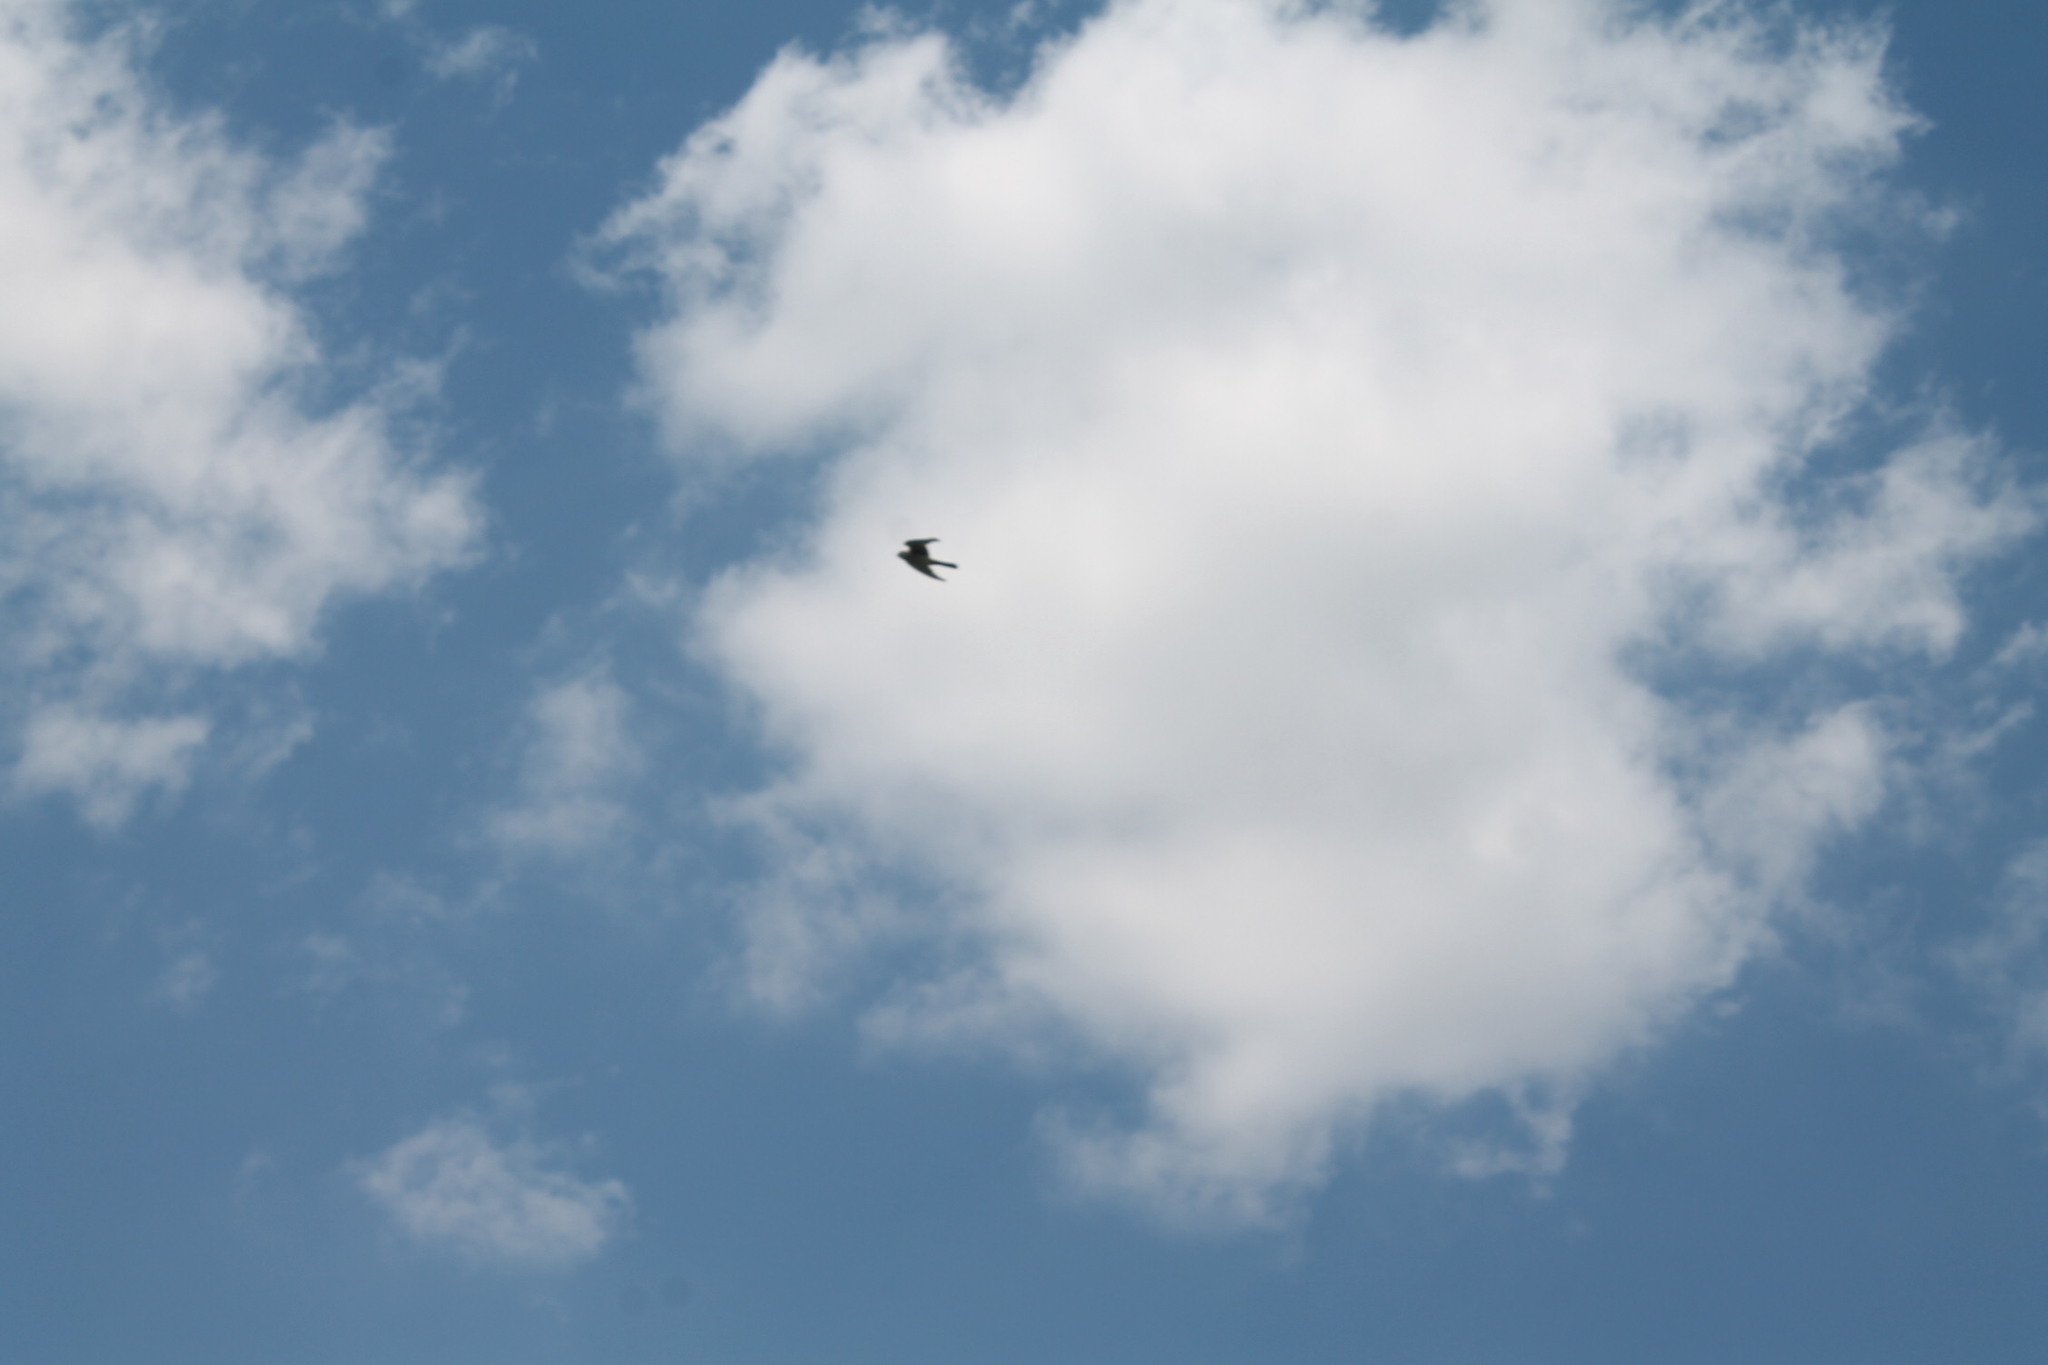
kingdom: Animalia
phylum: Chordata
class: Aves
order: Falconiformes
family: Falconidae
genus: Falco
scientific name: Falco sparverius
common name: American kestrel
